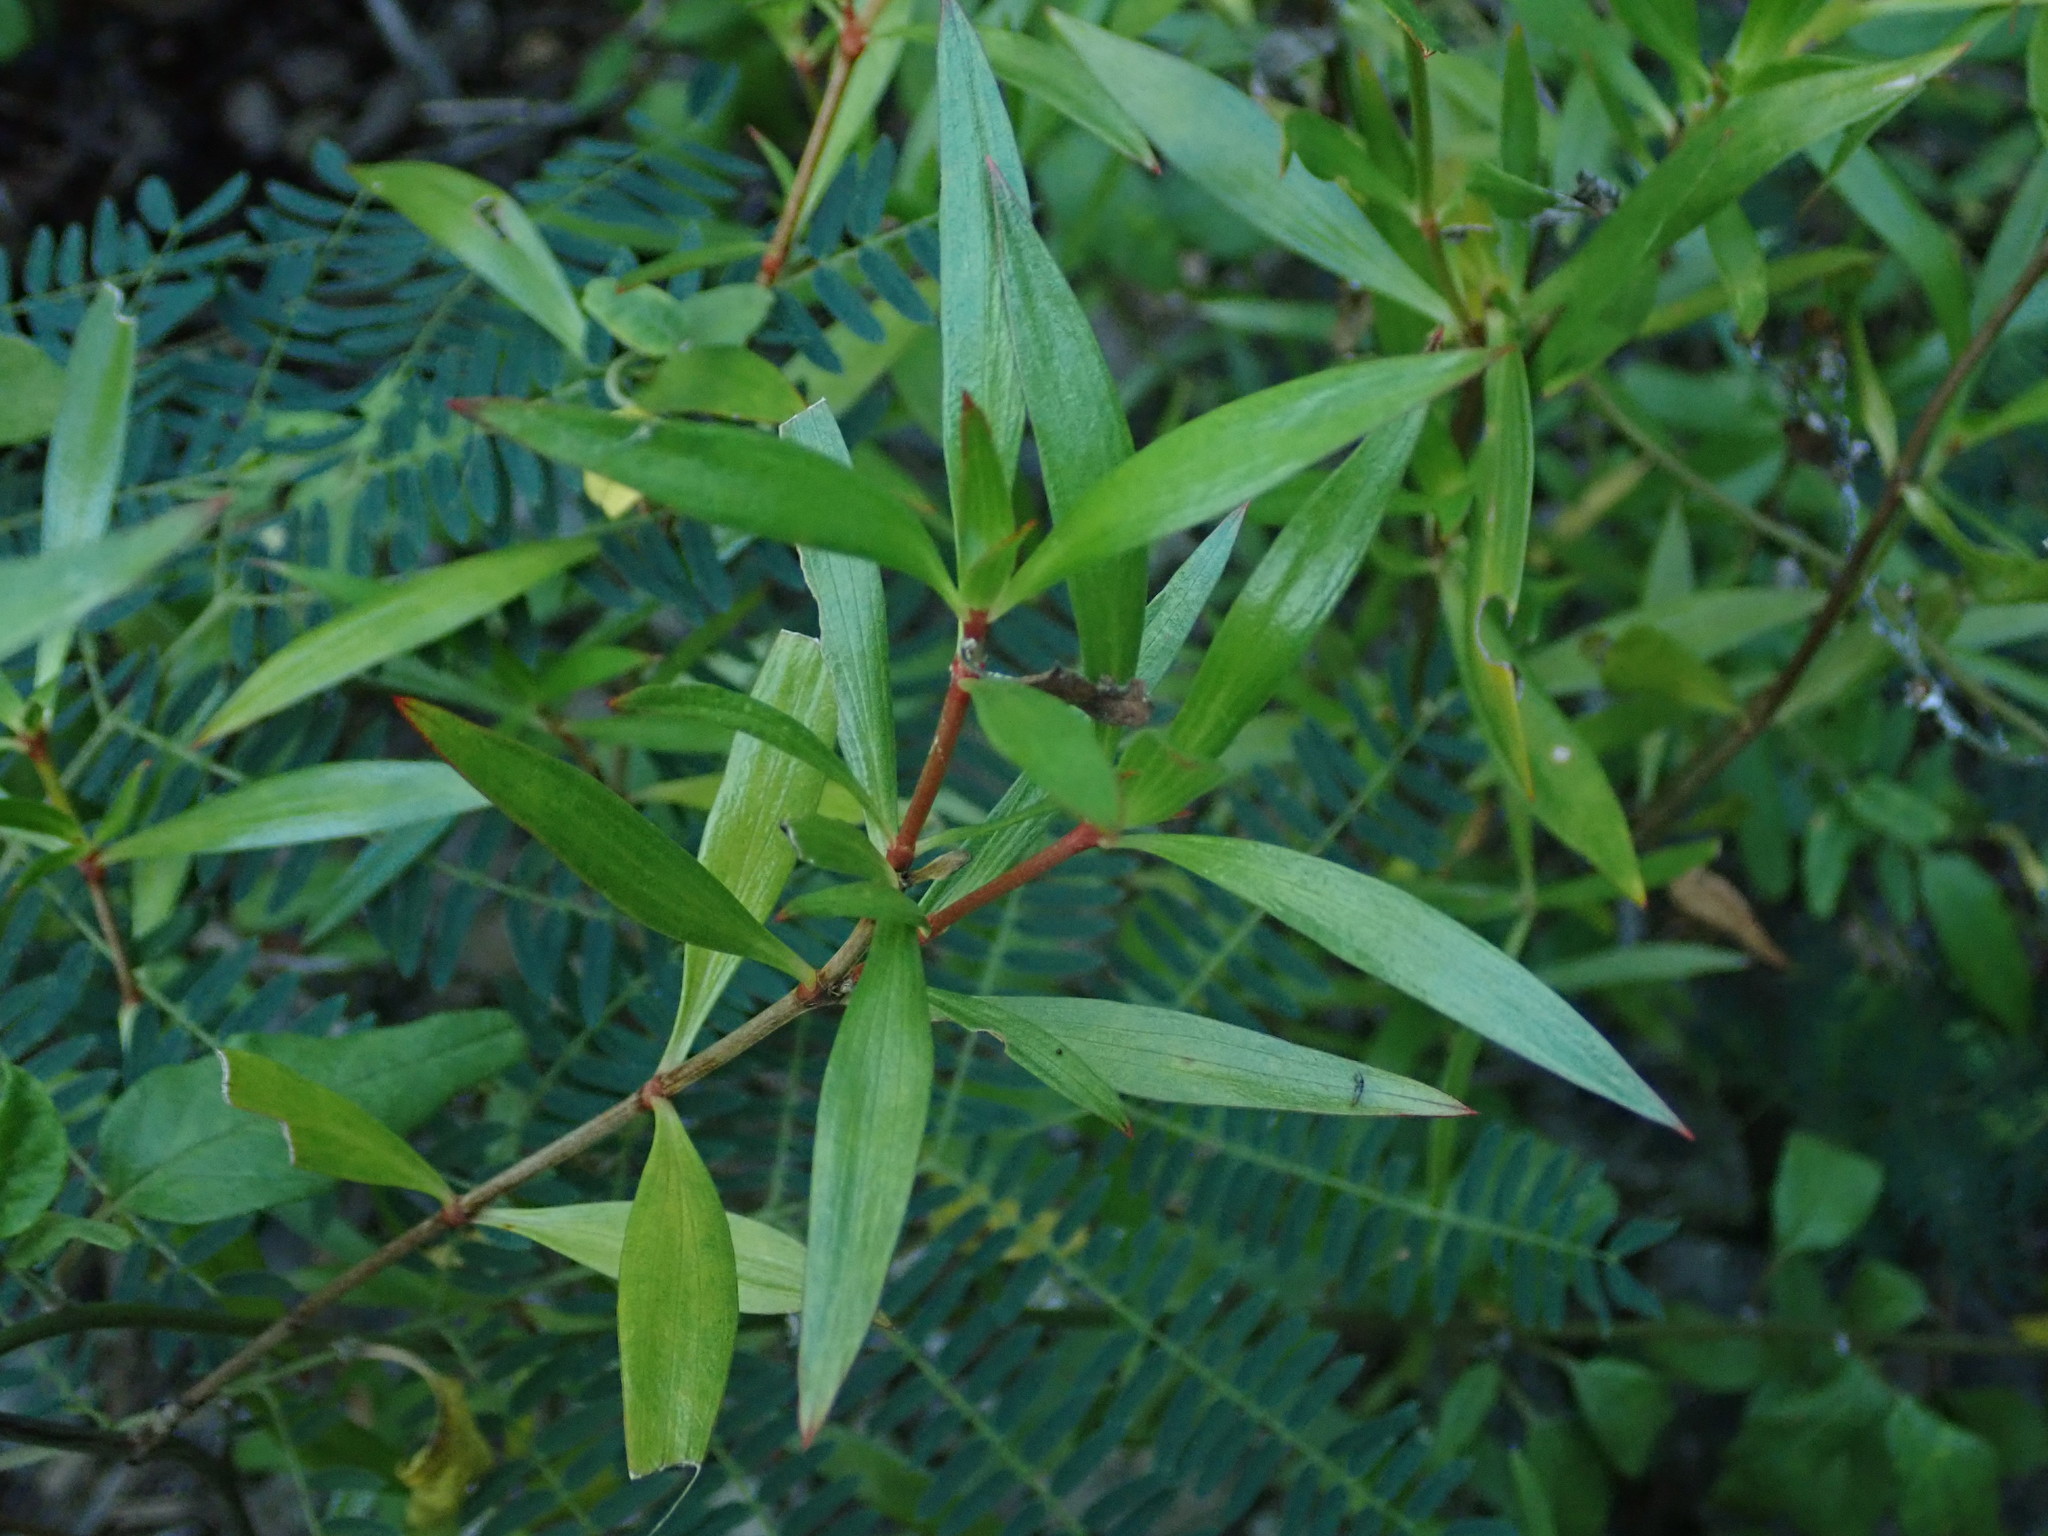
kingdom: Plantae
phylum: Tracheophyta
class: Magnoliopsida
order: Gentianales
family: Rubiaceae
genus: Ernodea
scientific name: Ernodea littoralis
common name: Beach creeper
